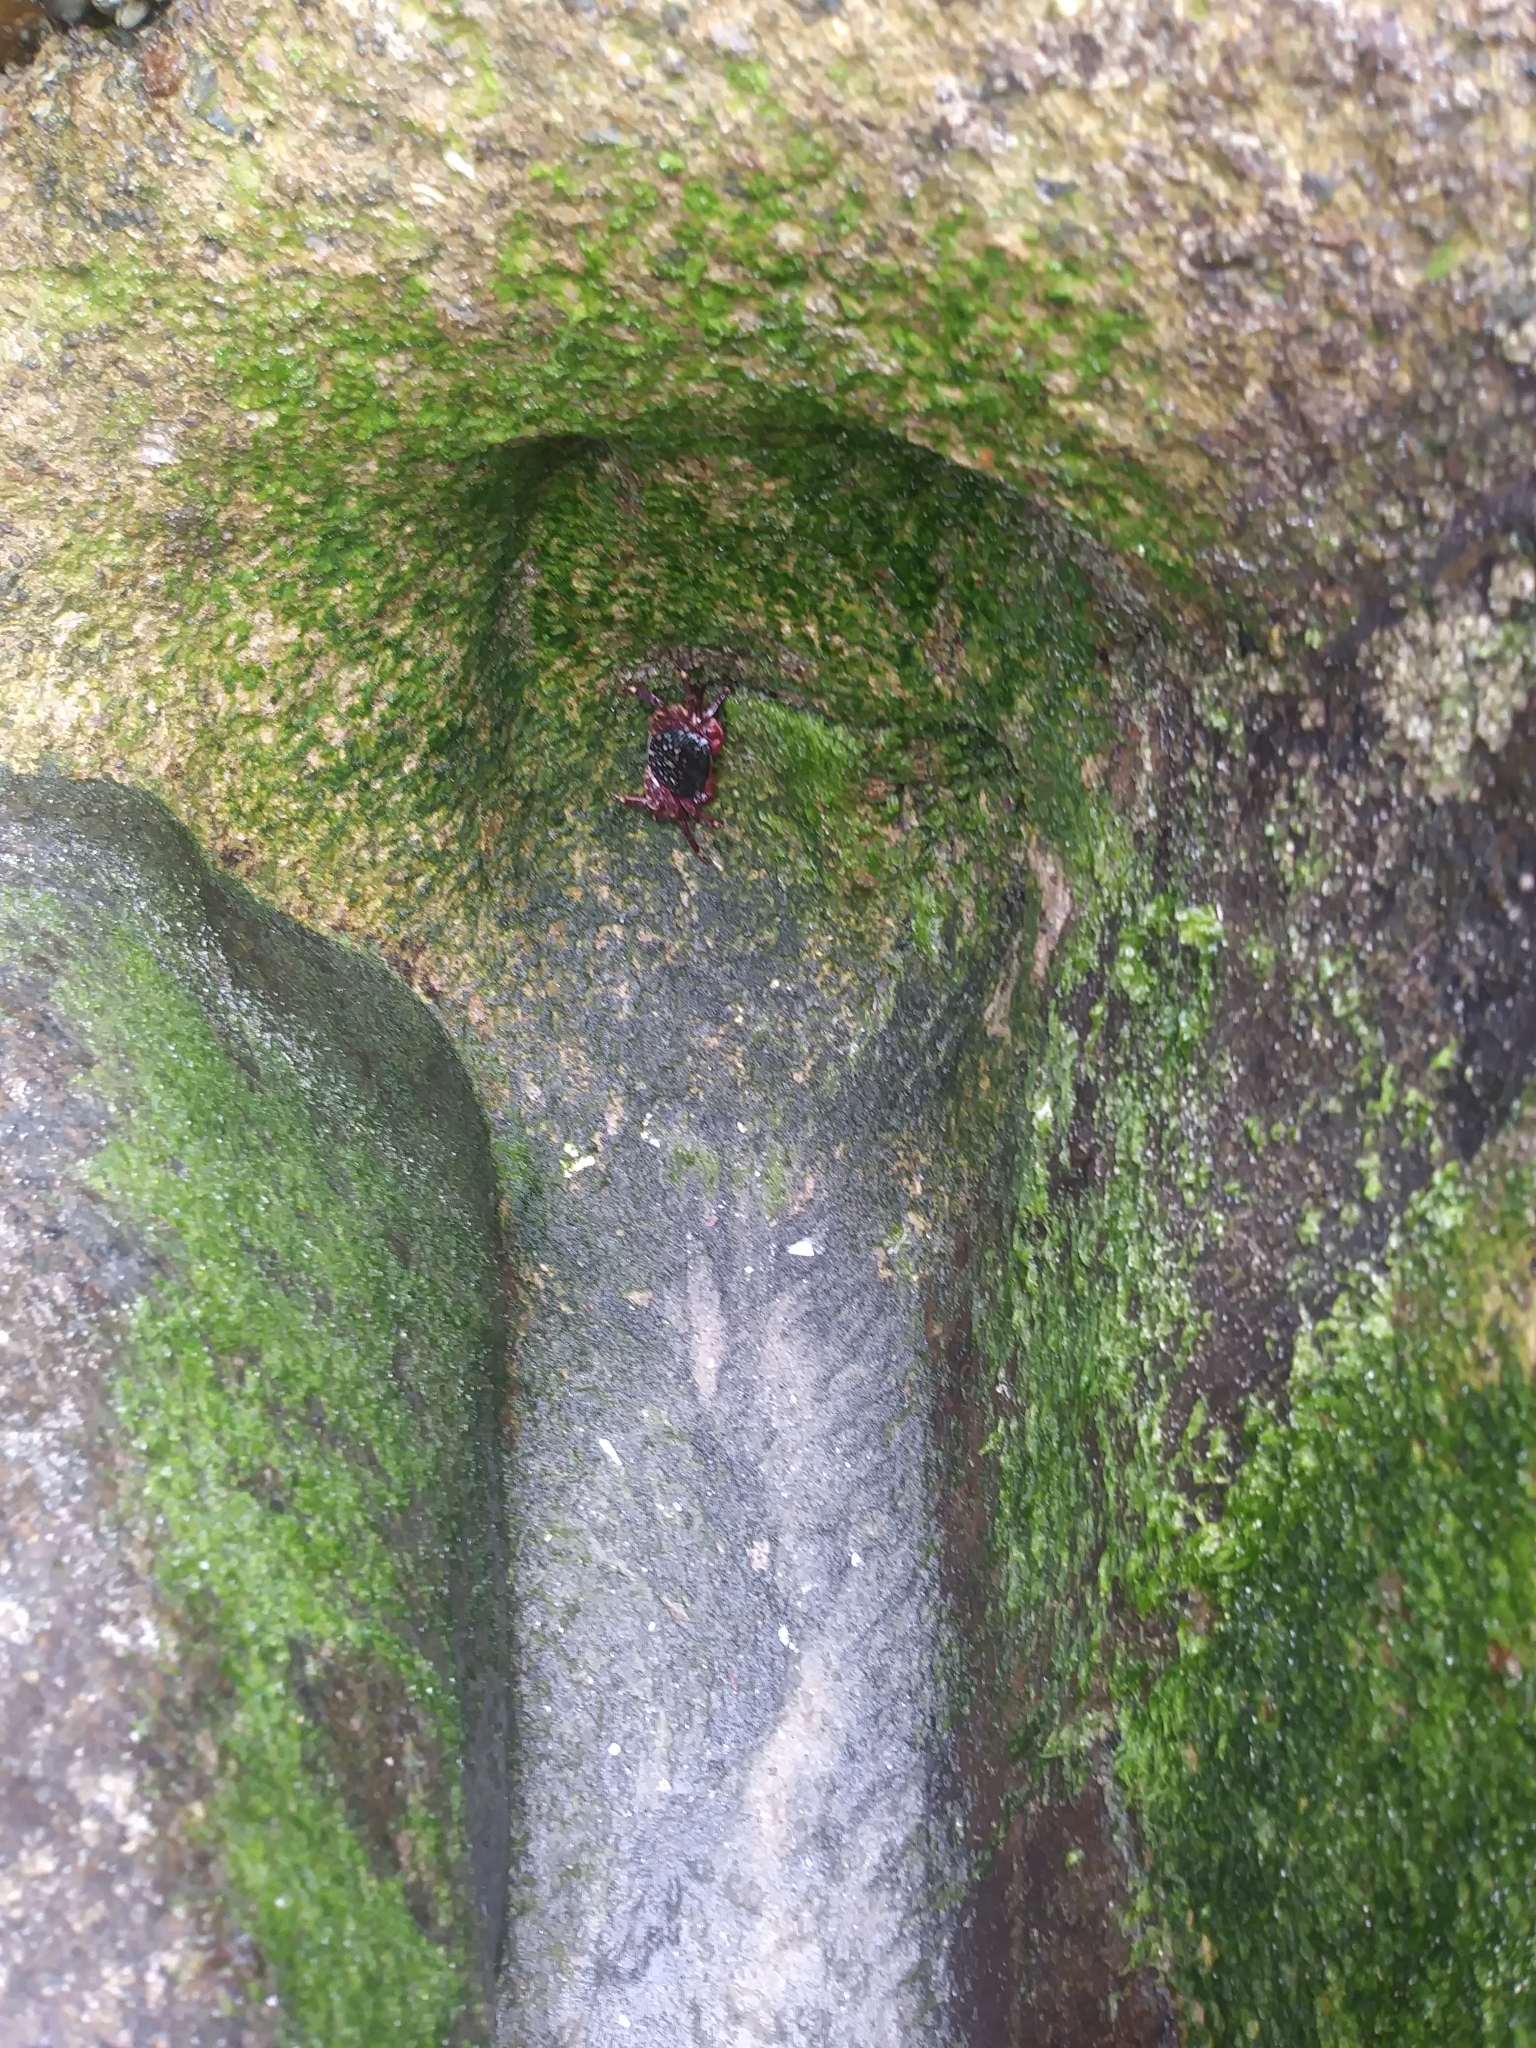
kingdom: Animalia
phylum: Arthropoda
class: Malacostraca
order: Decapoda
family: Grapsidae
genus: Pachygrapsus
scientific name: Pachygrapsus crassipes
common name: Striped shore crab
